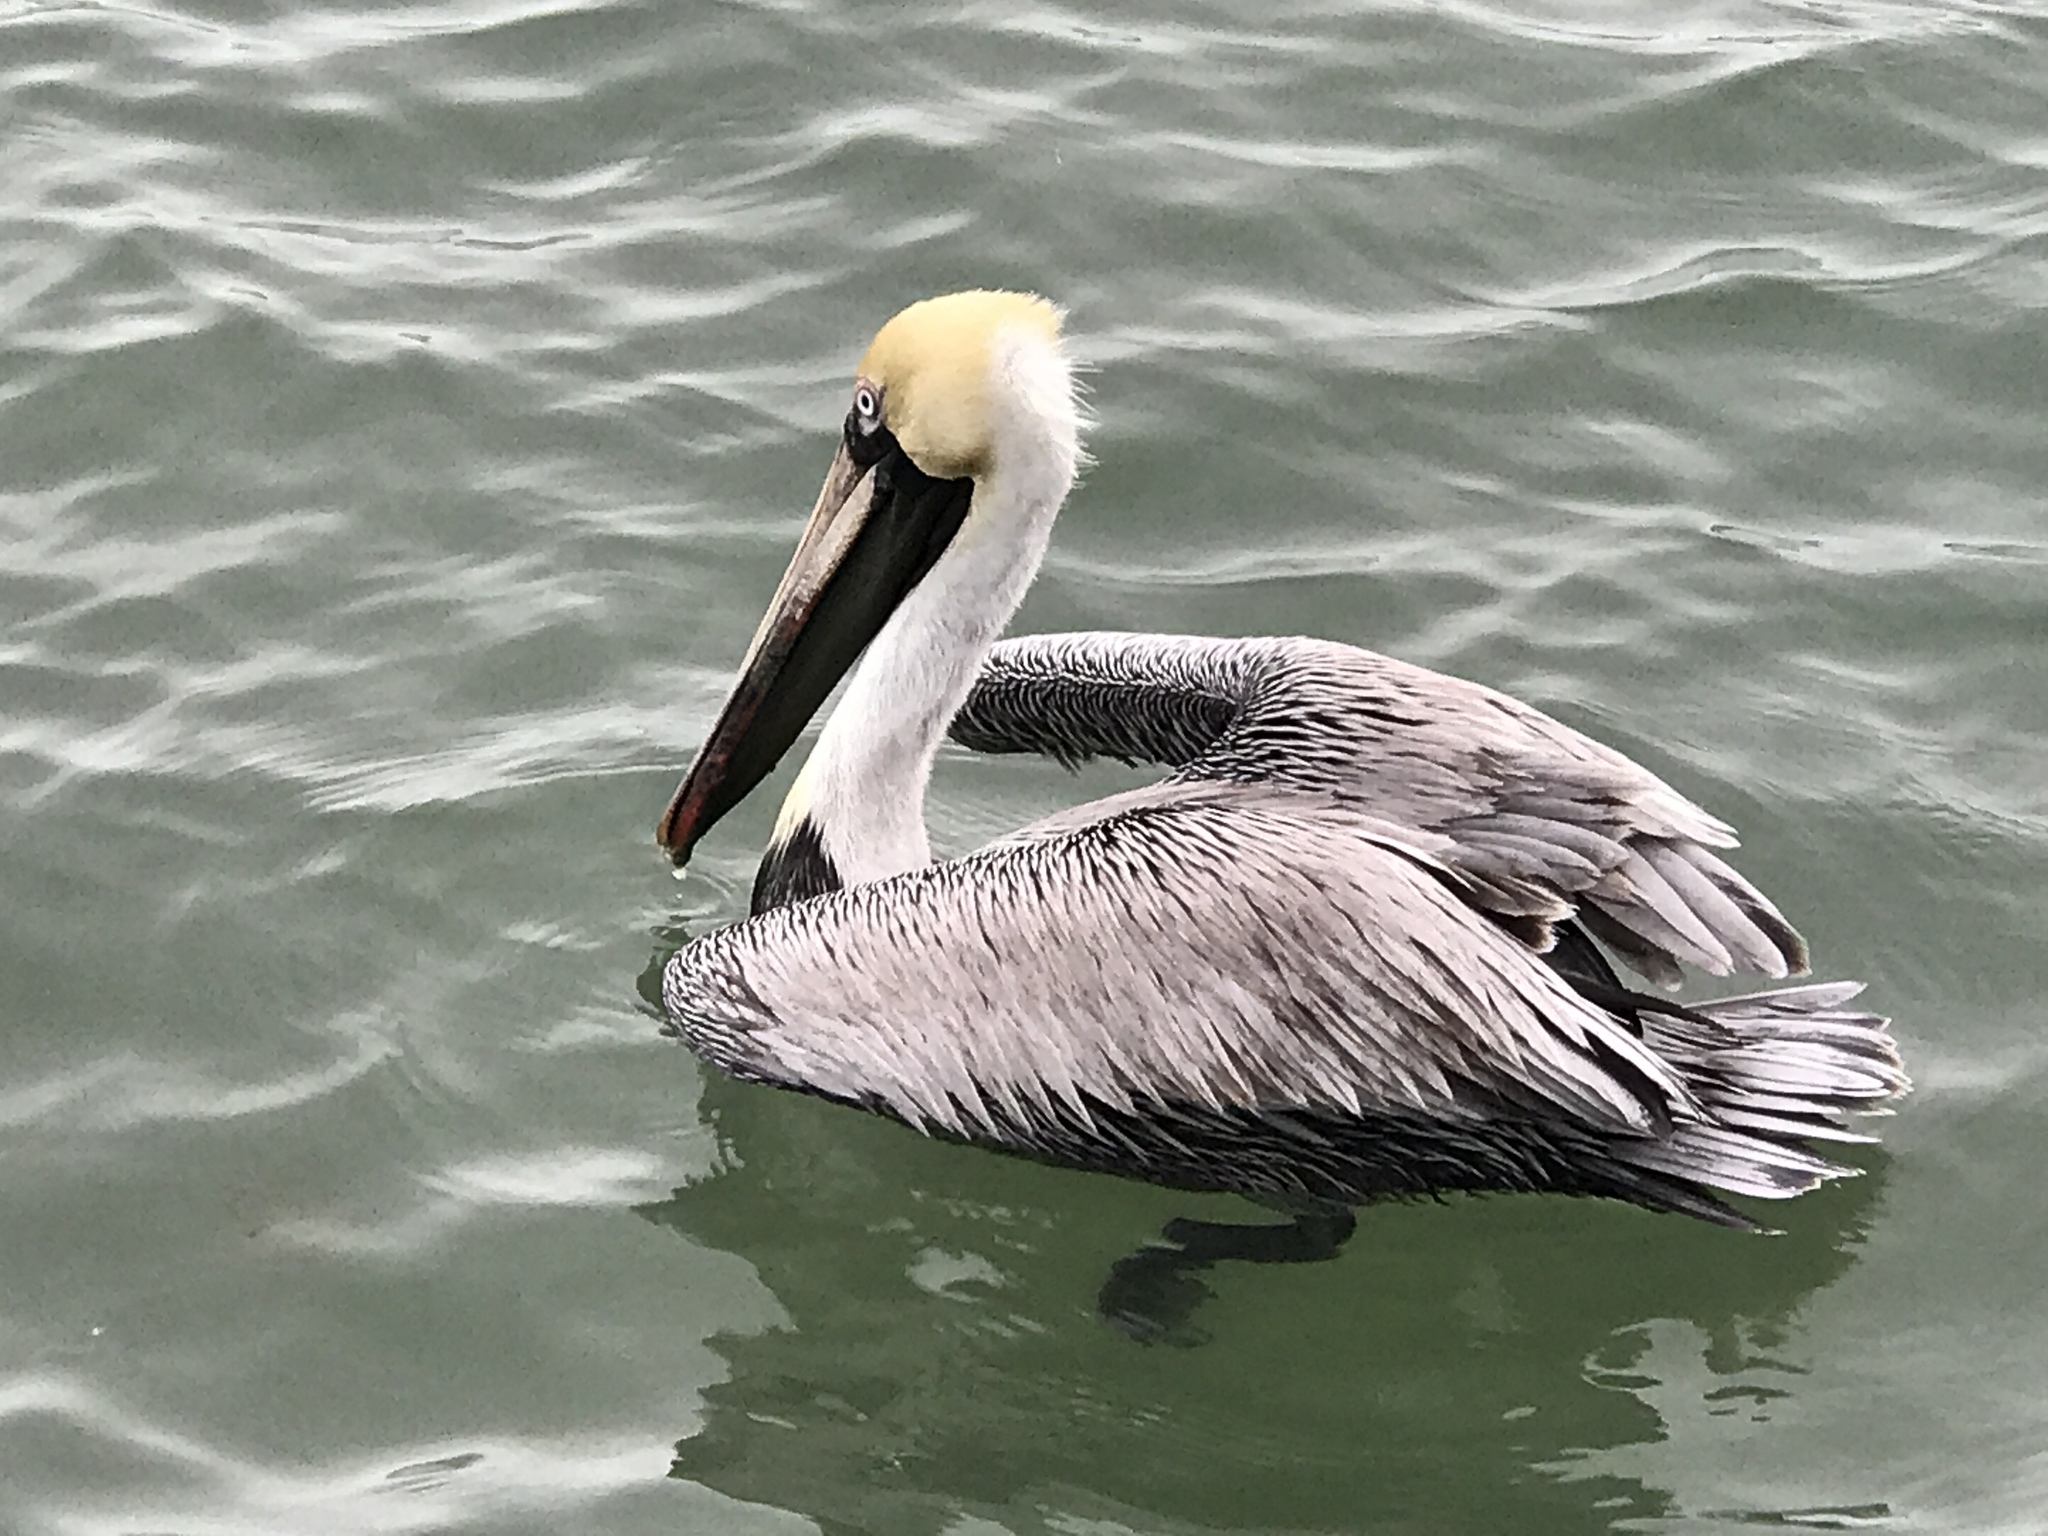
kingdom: Animalia
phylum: Chordata
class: Aves
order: Pelecaniformes
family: Pelecanidae
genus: Pelecanus
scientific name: Pelecanus occidentalis
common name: Brown pelican
